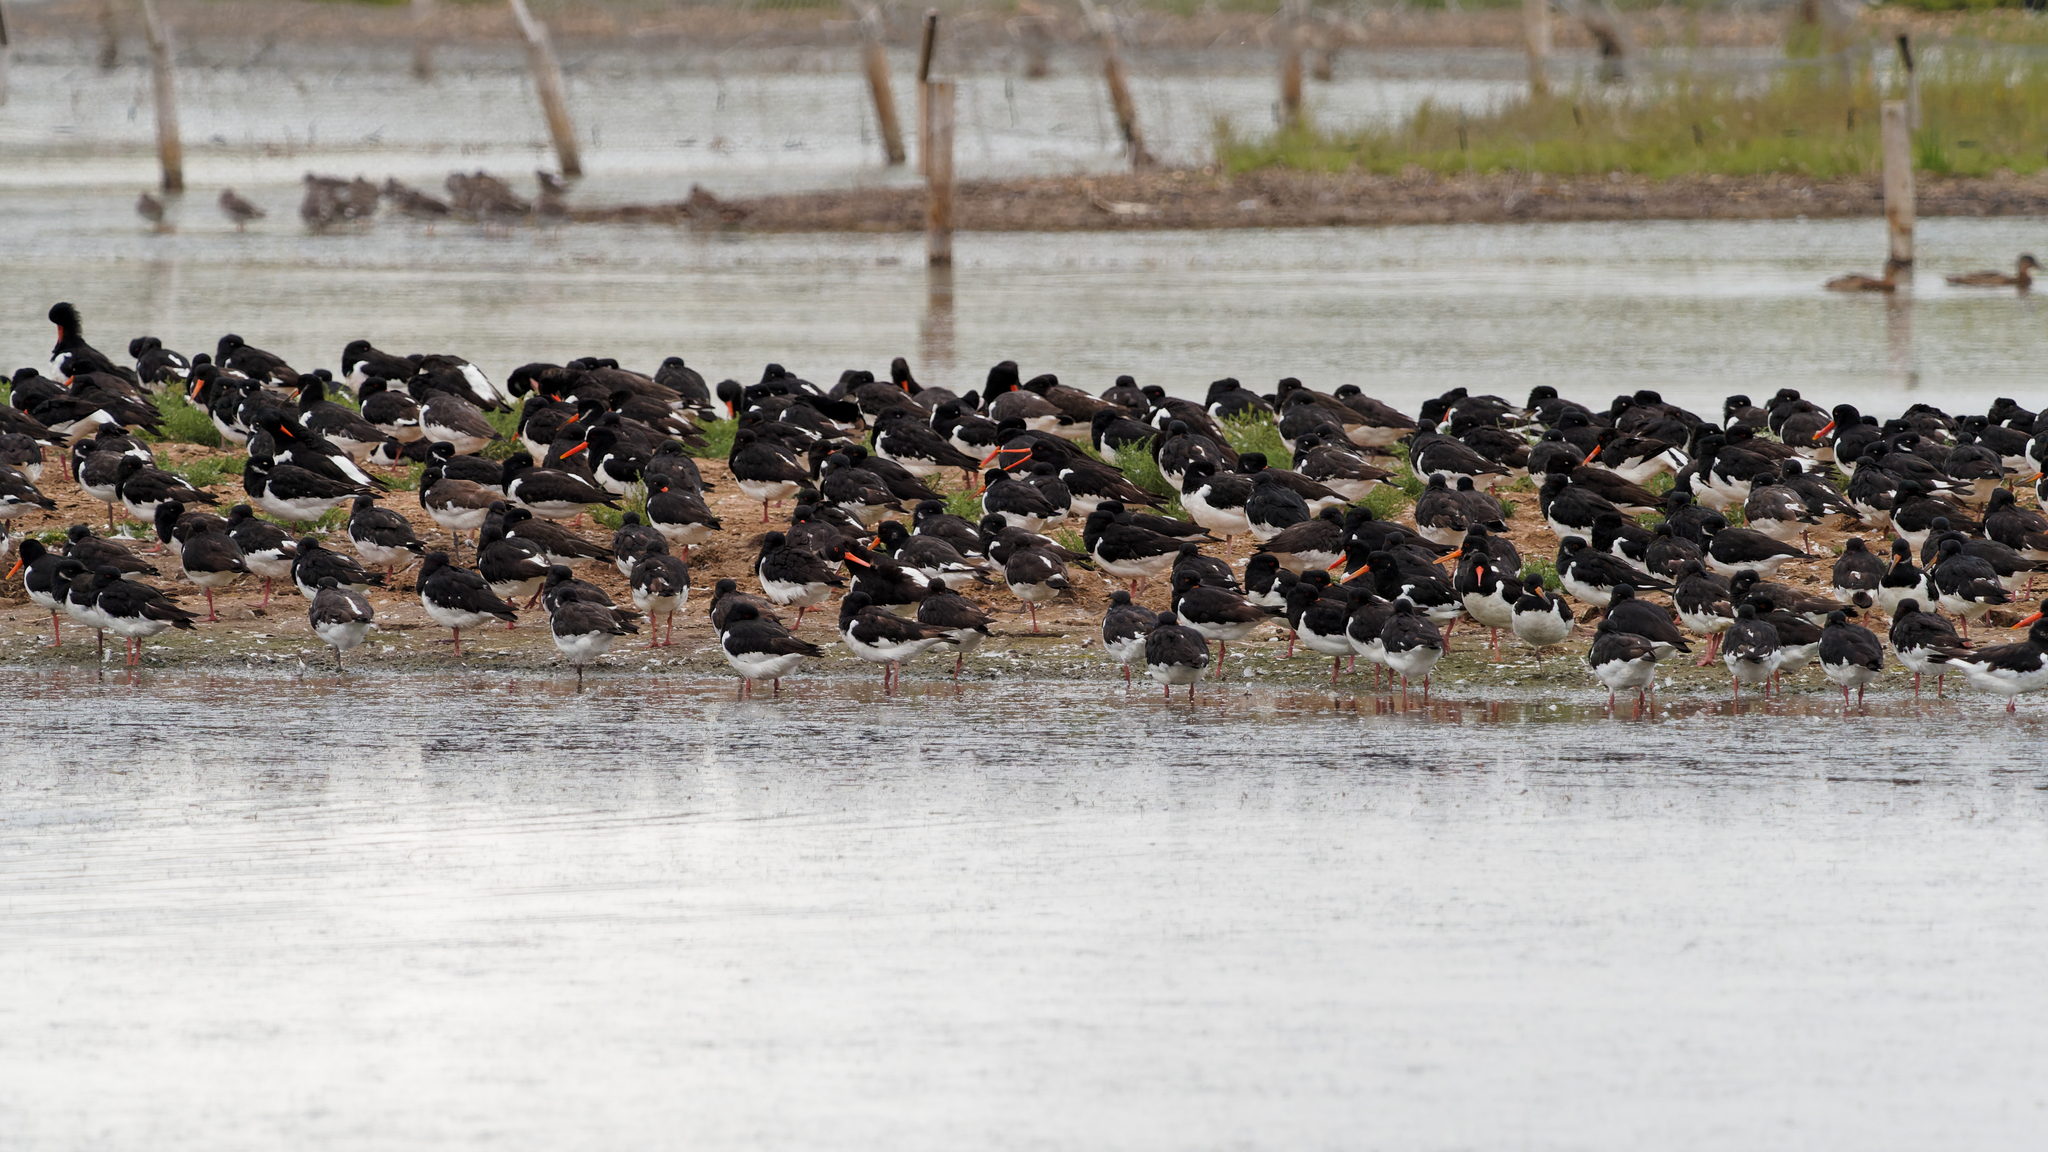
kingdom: Animalia
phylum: Chordata
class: Aves
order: Charadriiformes
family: Haematopodidae
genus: Haematopus
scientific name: Haematopus ostralegus
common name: Eurasian oystercatcher
